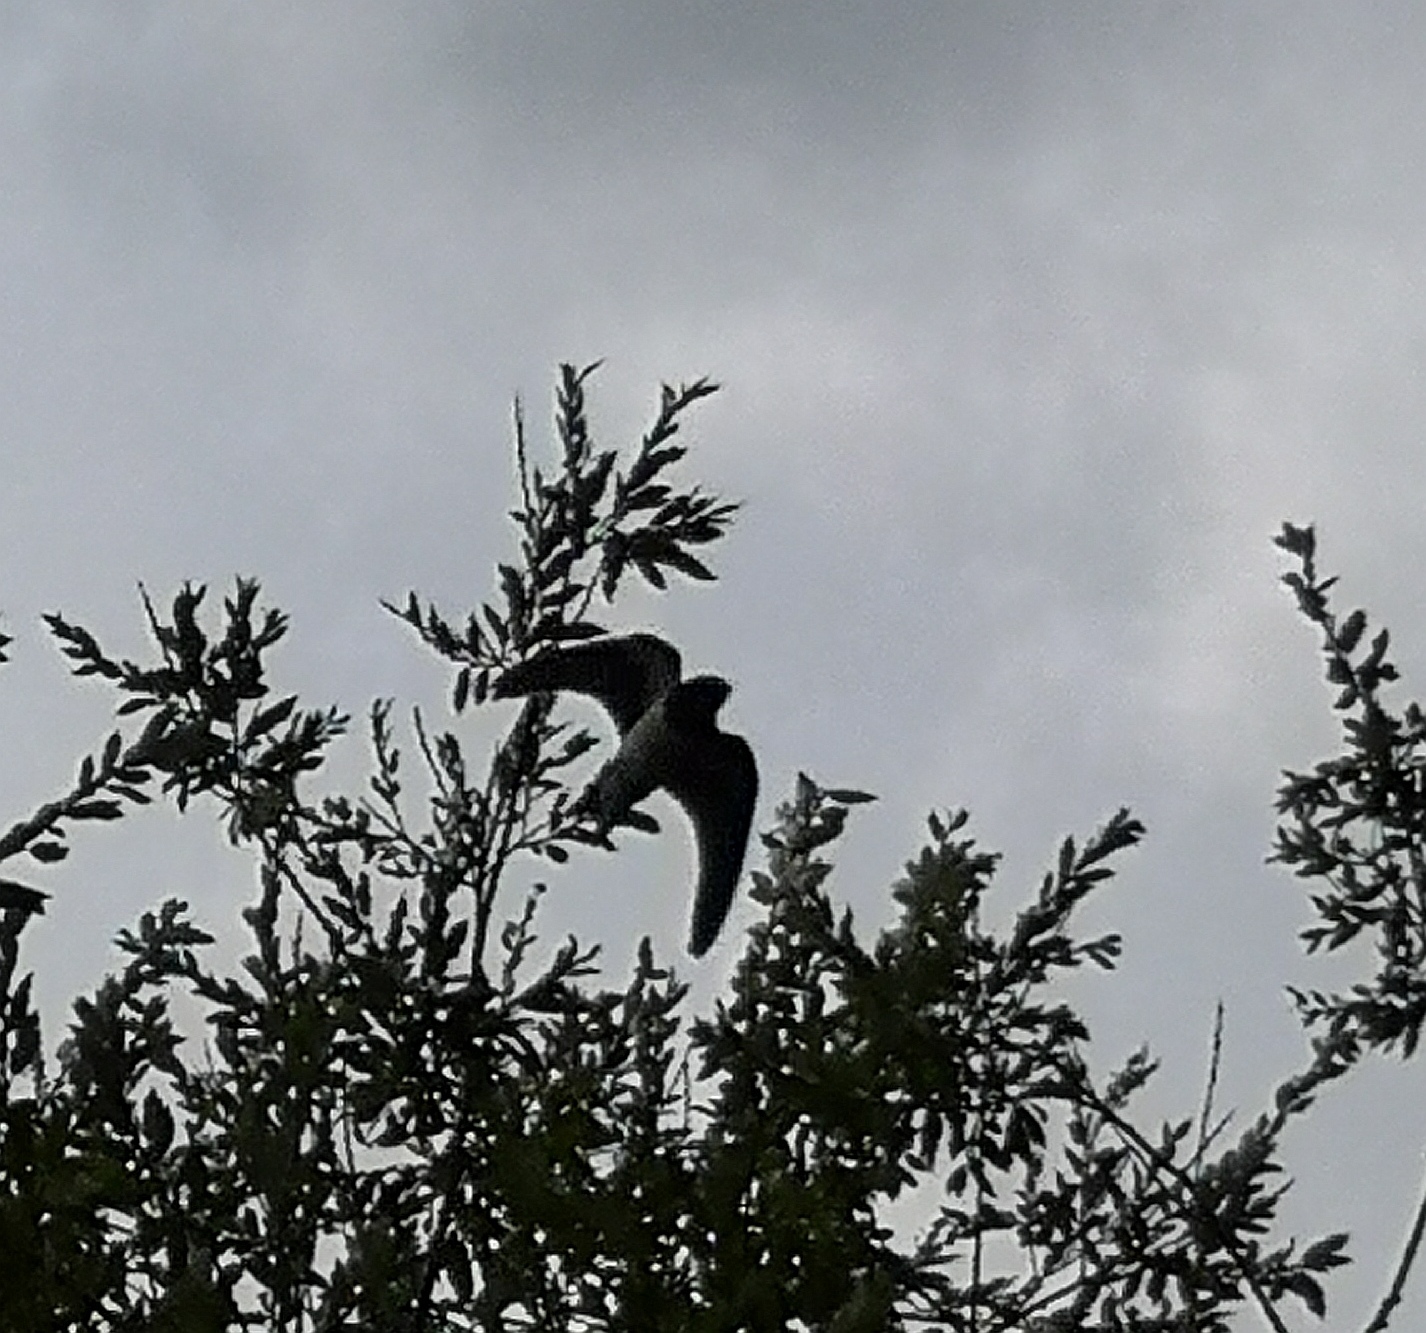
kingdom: Animalia
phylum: Chordata
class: Aves
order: Passeriformes
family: Hirundinidae
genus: Hirundo
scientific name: Hirundo rustica
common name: Barn swallow
